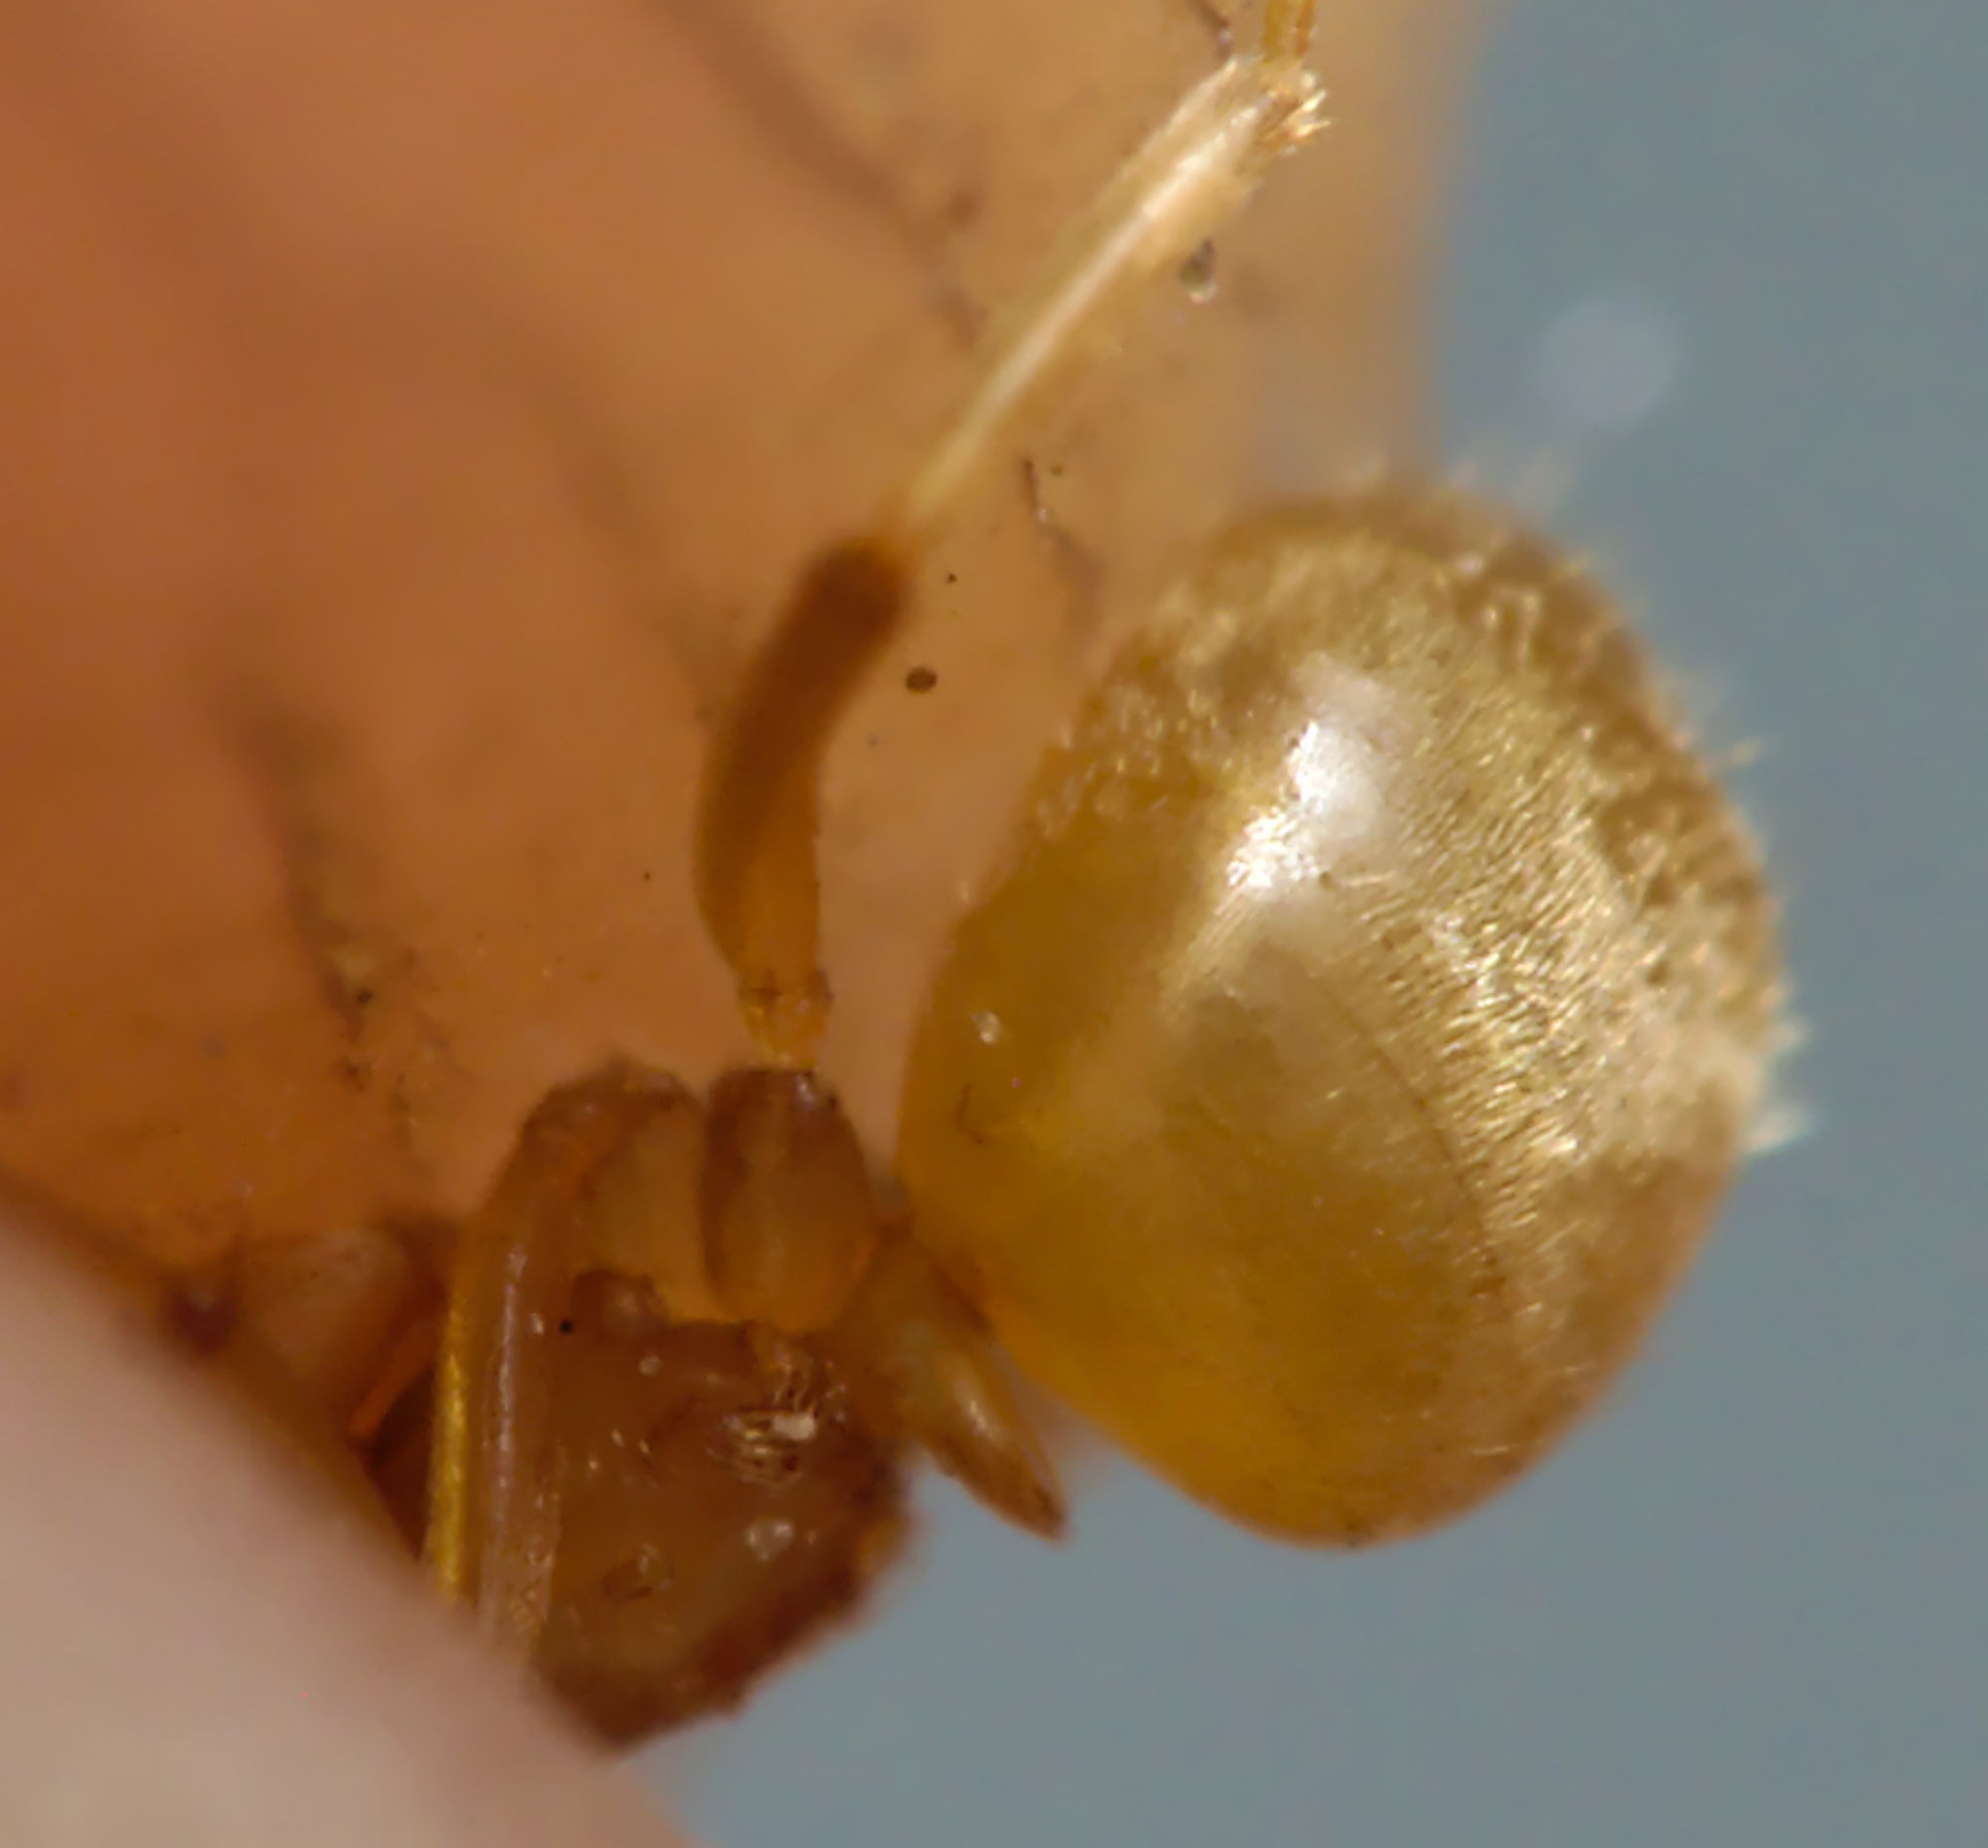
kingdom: Animalia
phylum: Arthropoda
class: Insecta
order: Hymenoptera
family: Formicidae
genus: Lasius
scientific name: Lasius flavus
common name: Blond field ant
